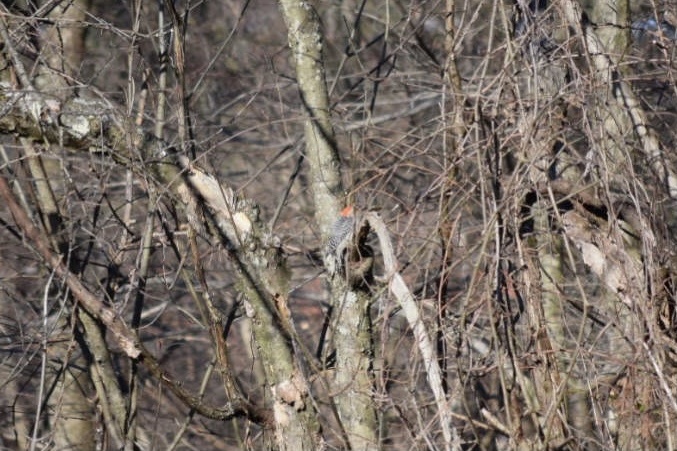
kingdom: Animalia
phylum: Chordata
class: Aves
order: Piciformes
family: Picidae
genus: Melanerpes
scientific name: Melanerpes carolinus
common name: Red-bellied woodpecker
